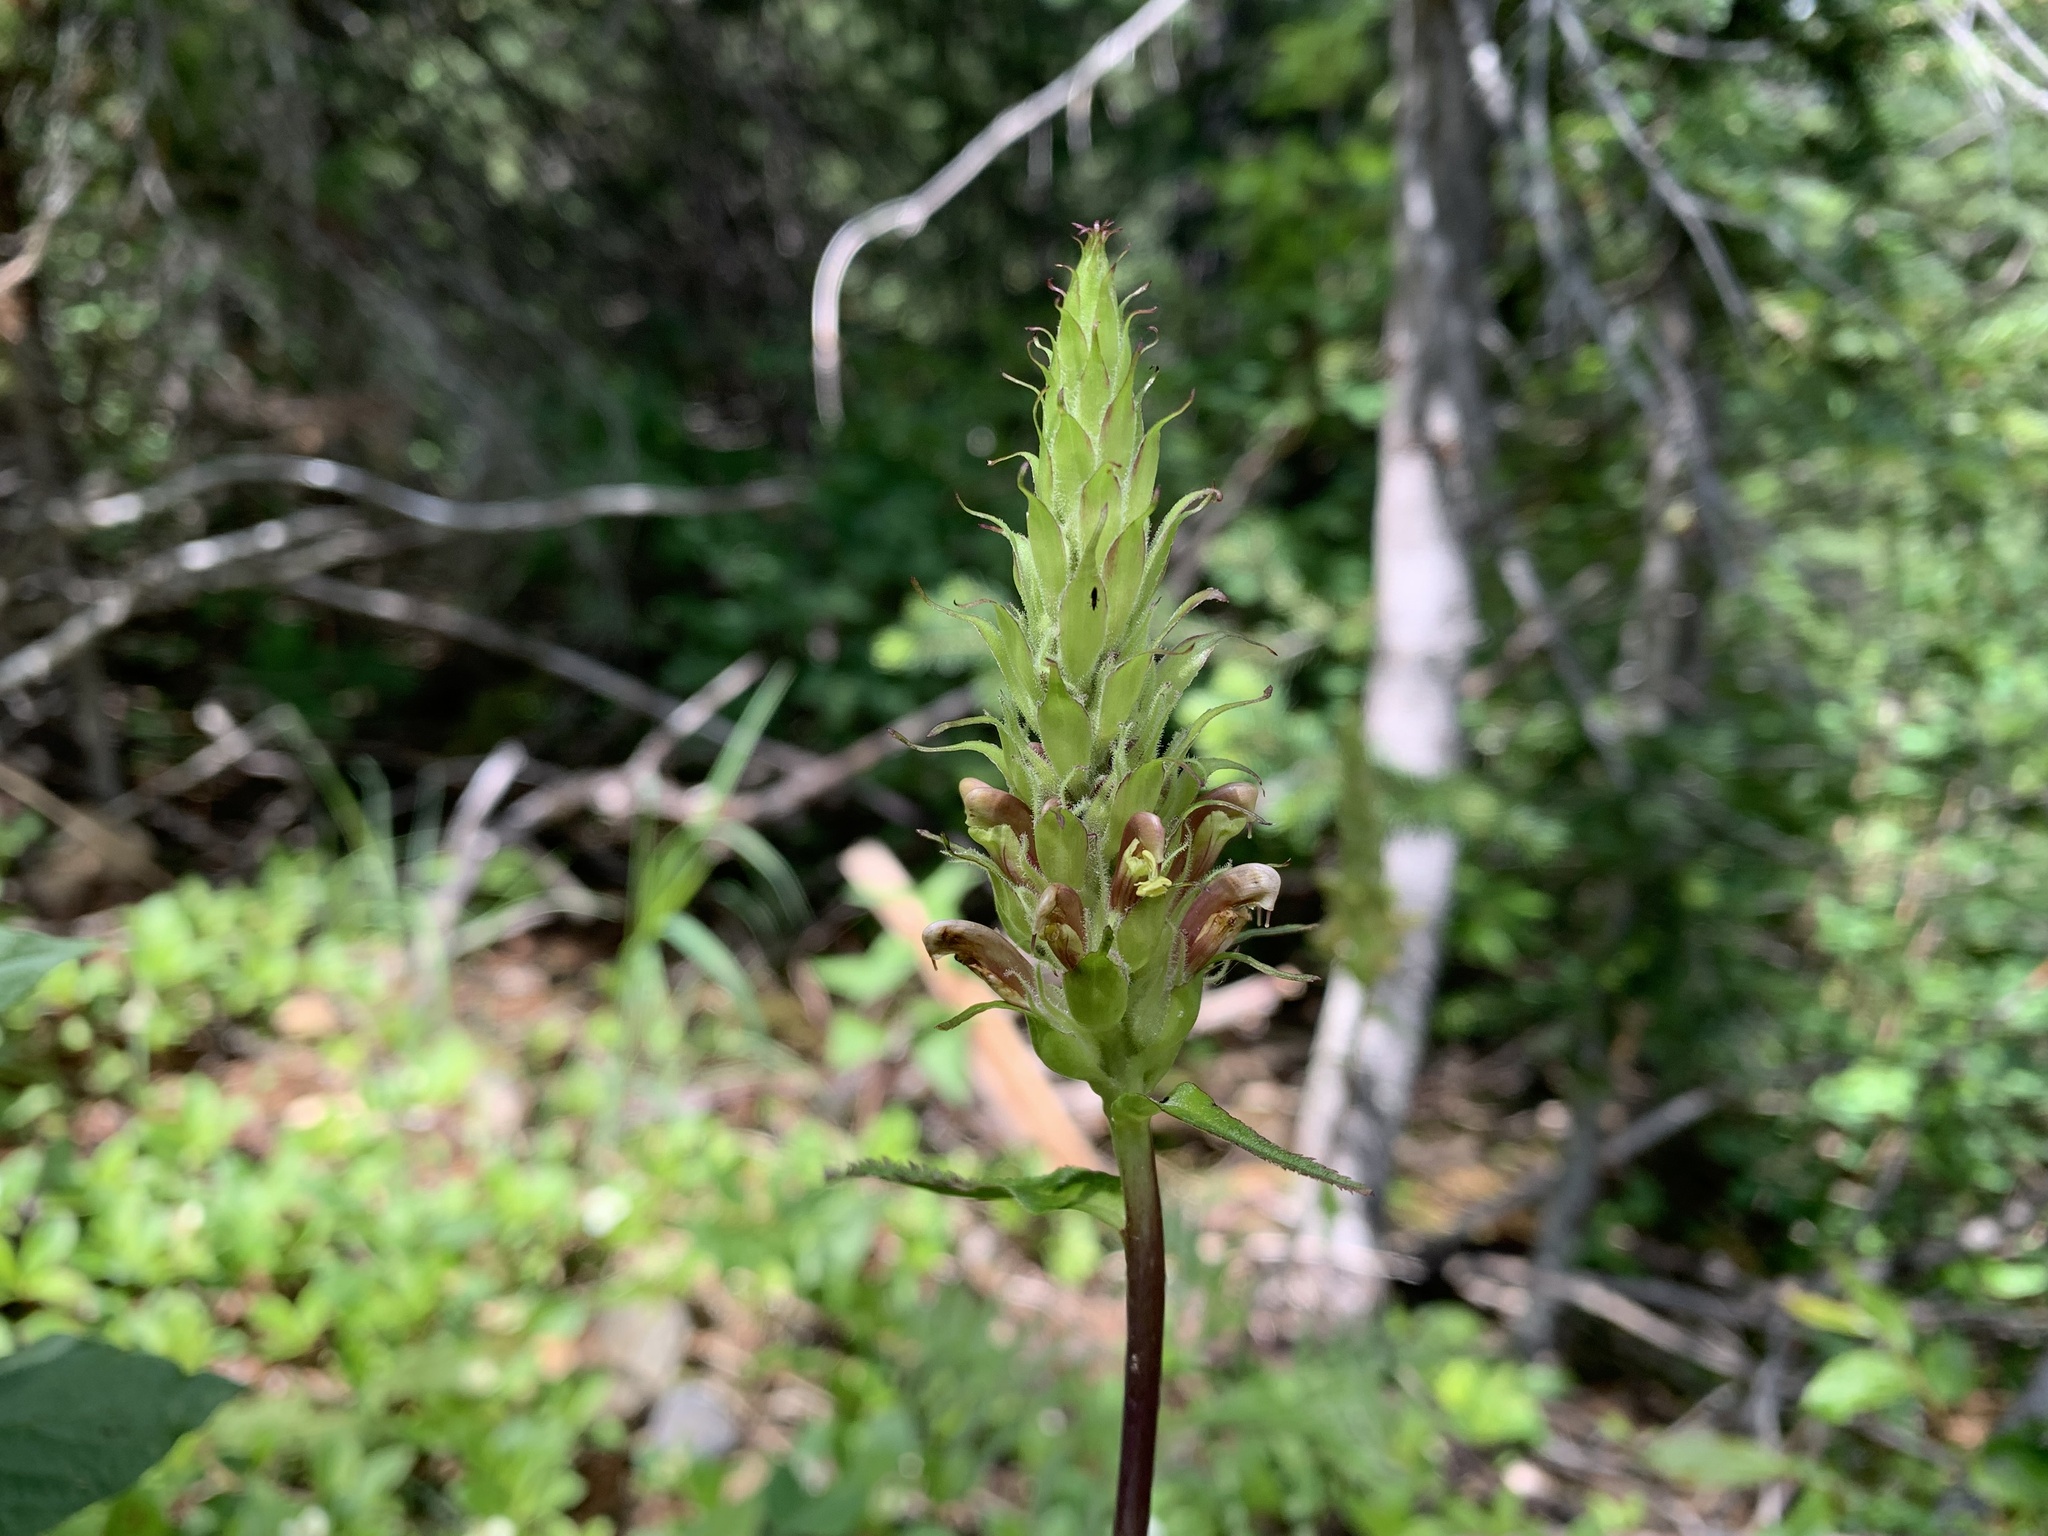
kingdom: Plantae
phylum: Tracheophyta
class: Magnoliopsida
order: Lamiales
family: Orobanchaceae
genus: Pedicularis
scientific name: Pedicularis bracteosa
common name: Bracted lousewort
